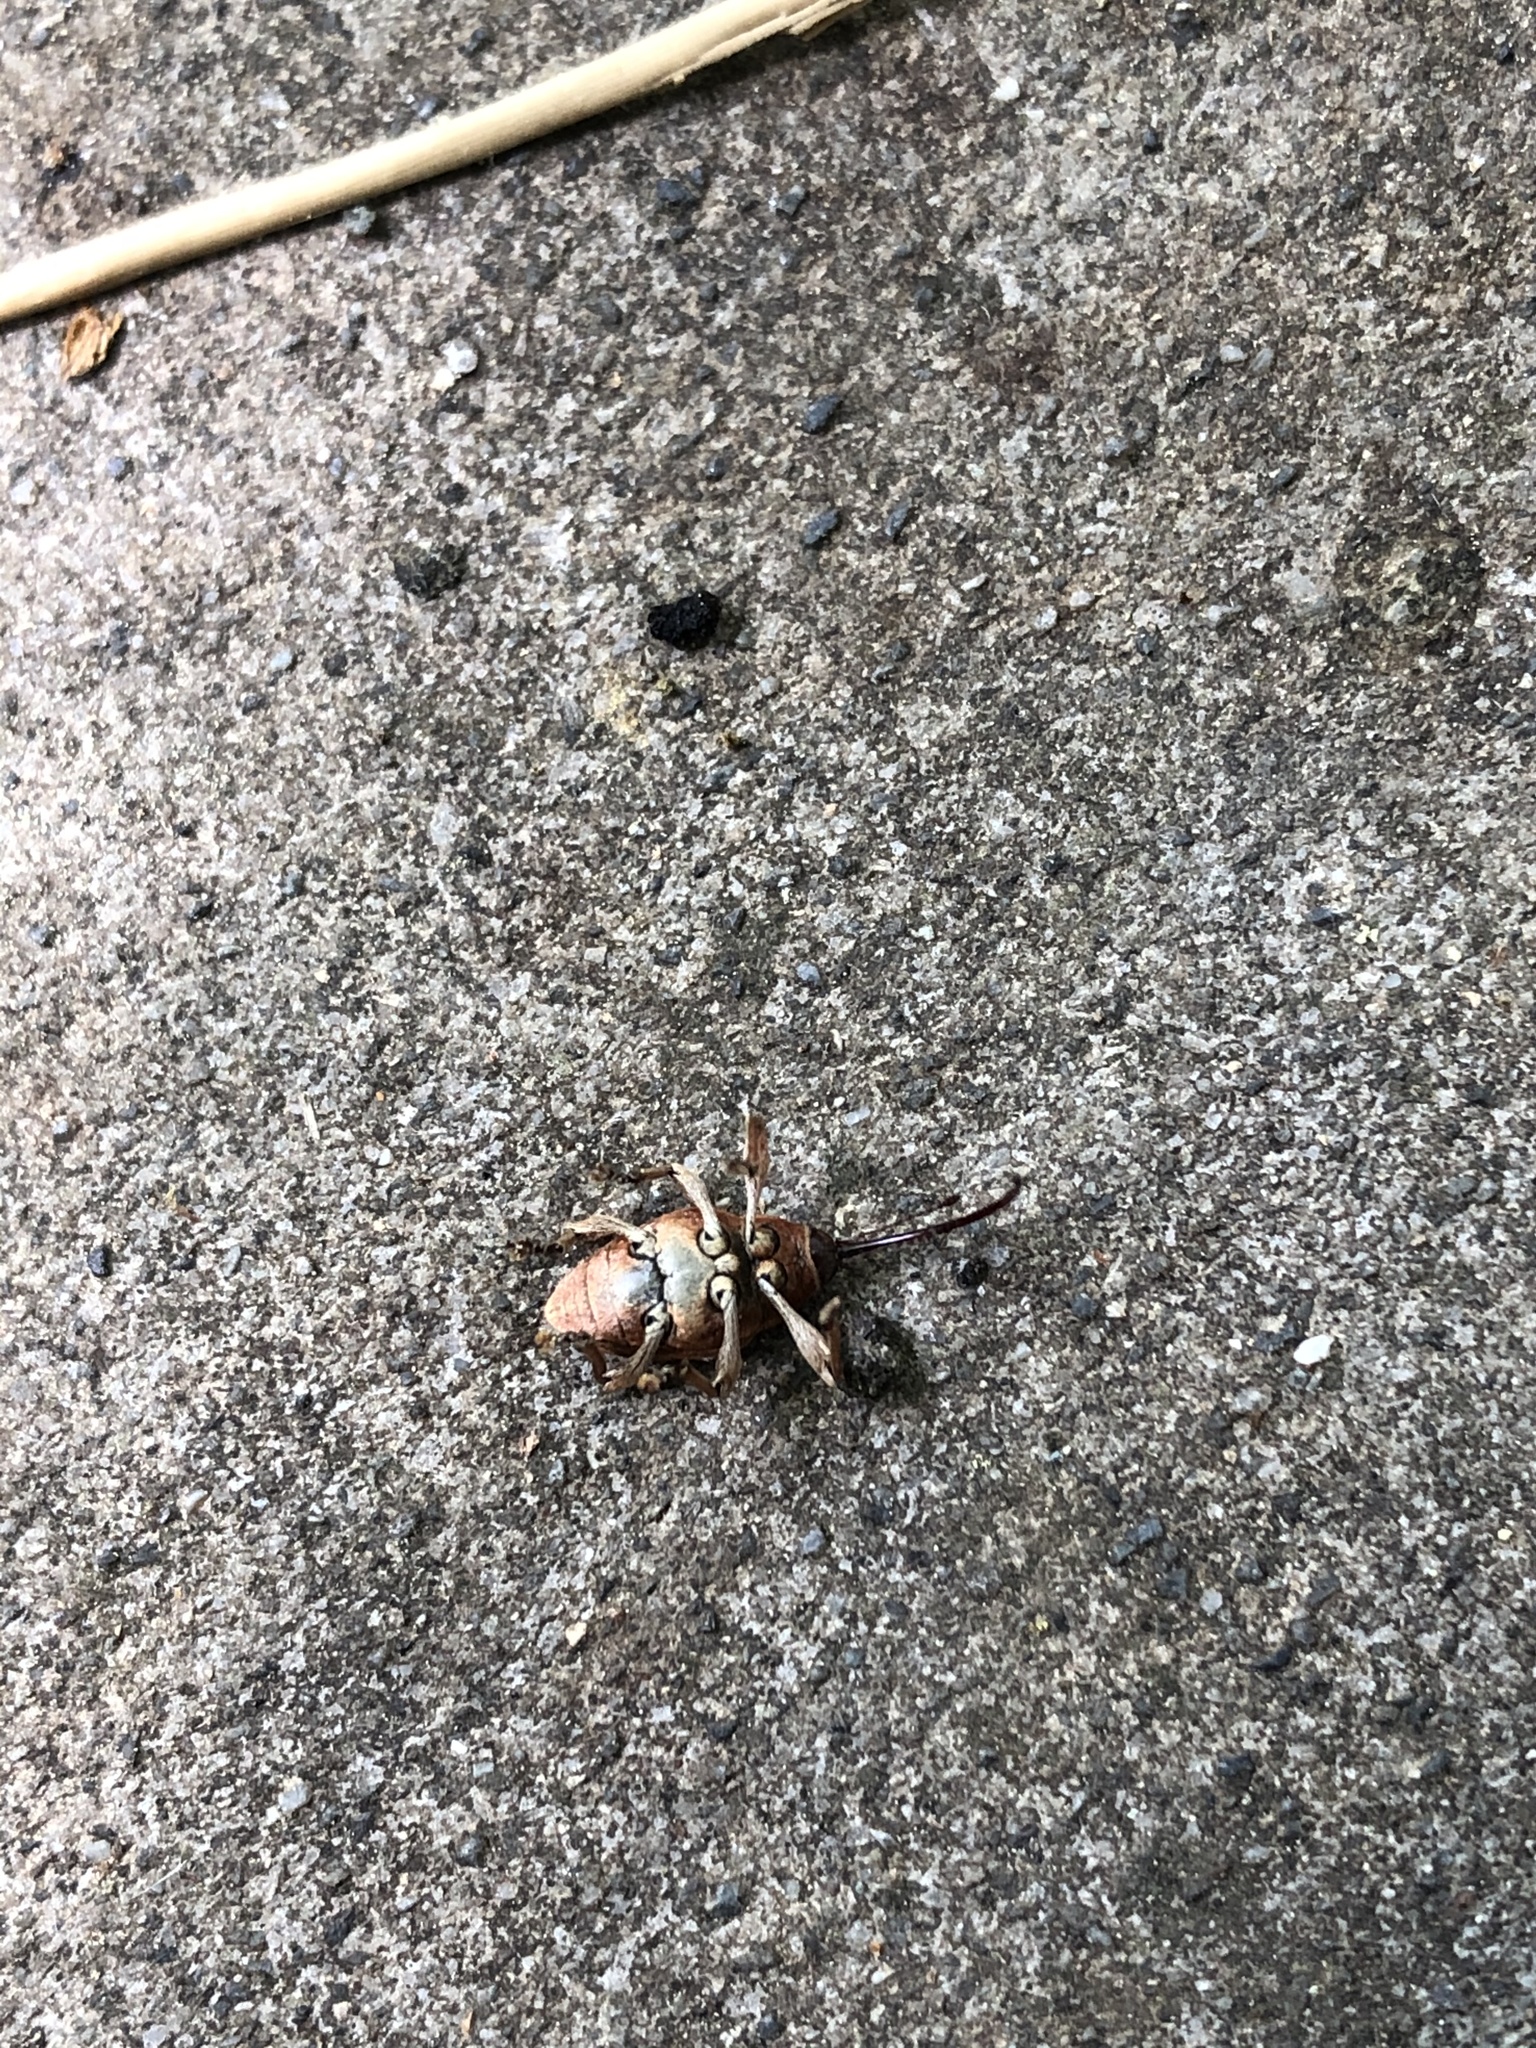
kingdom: Animalia
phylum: Arthropoda
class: Insecta
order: Coleoptera
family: Curculionidae
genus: Curculio
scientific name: Curculio glandium
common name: Acorn weevil
